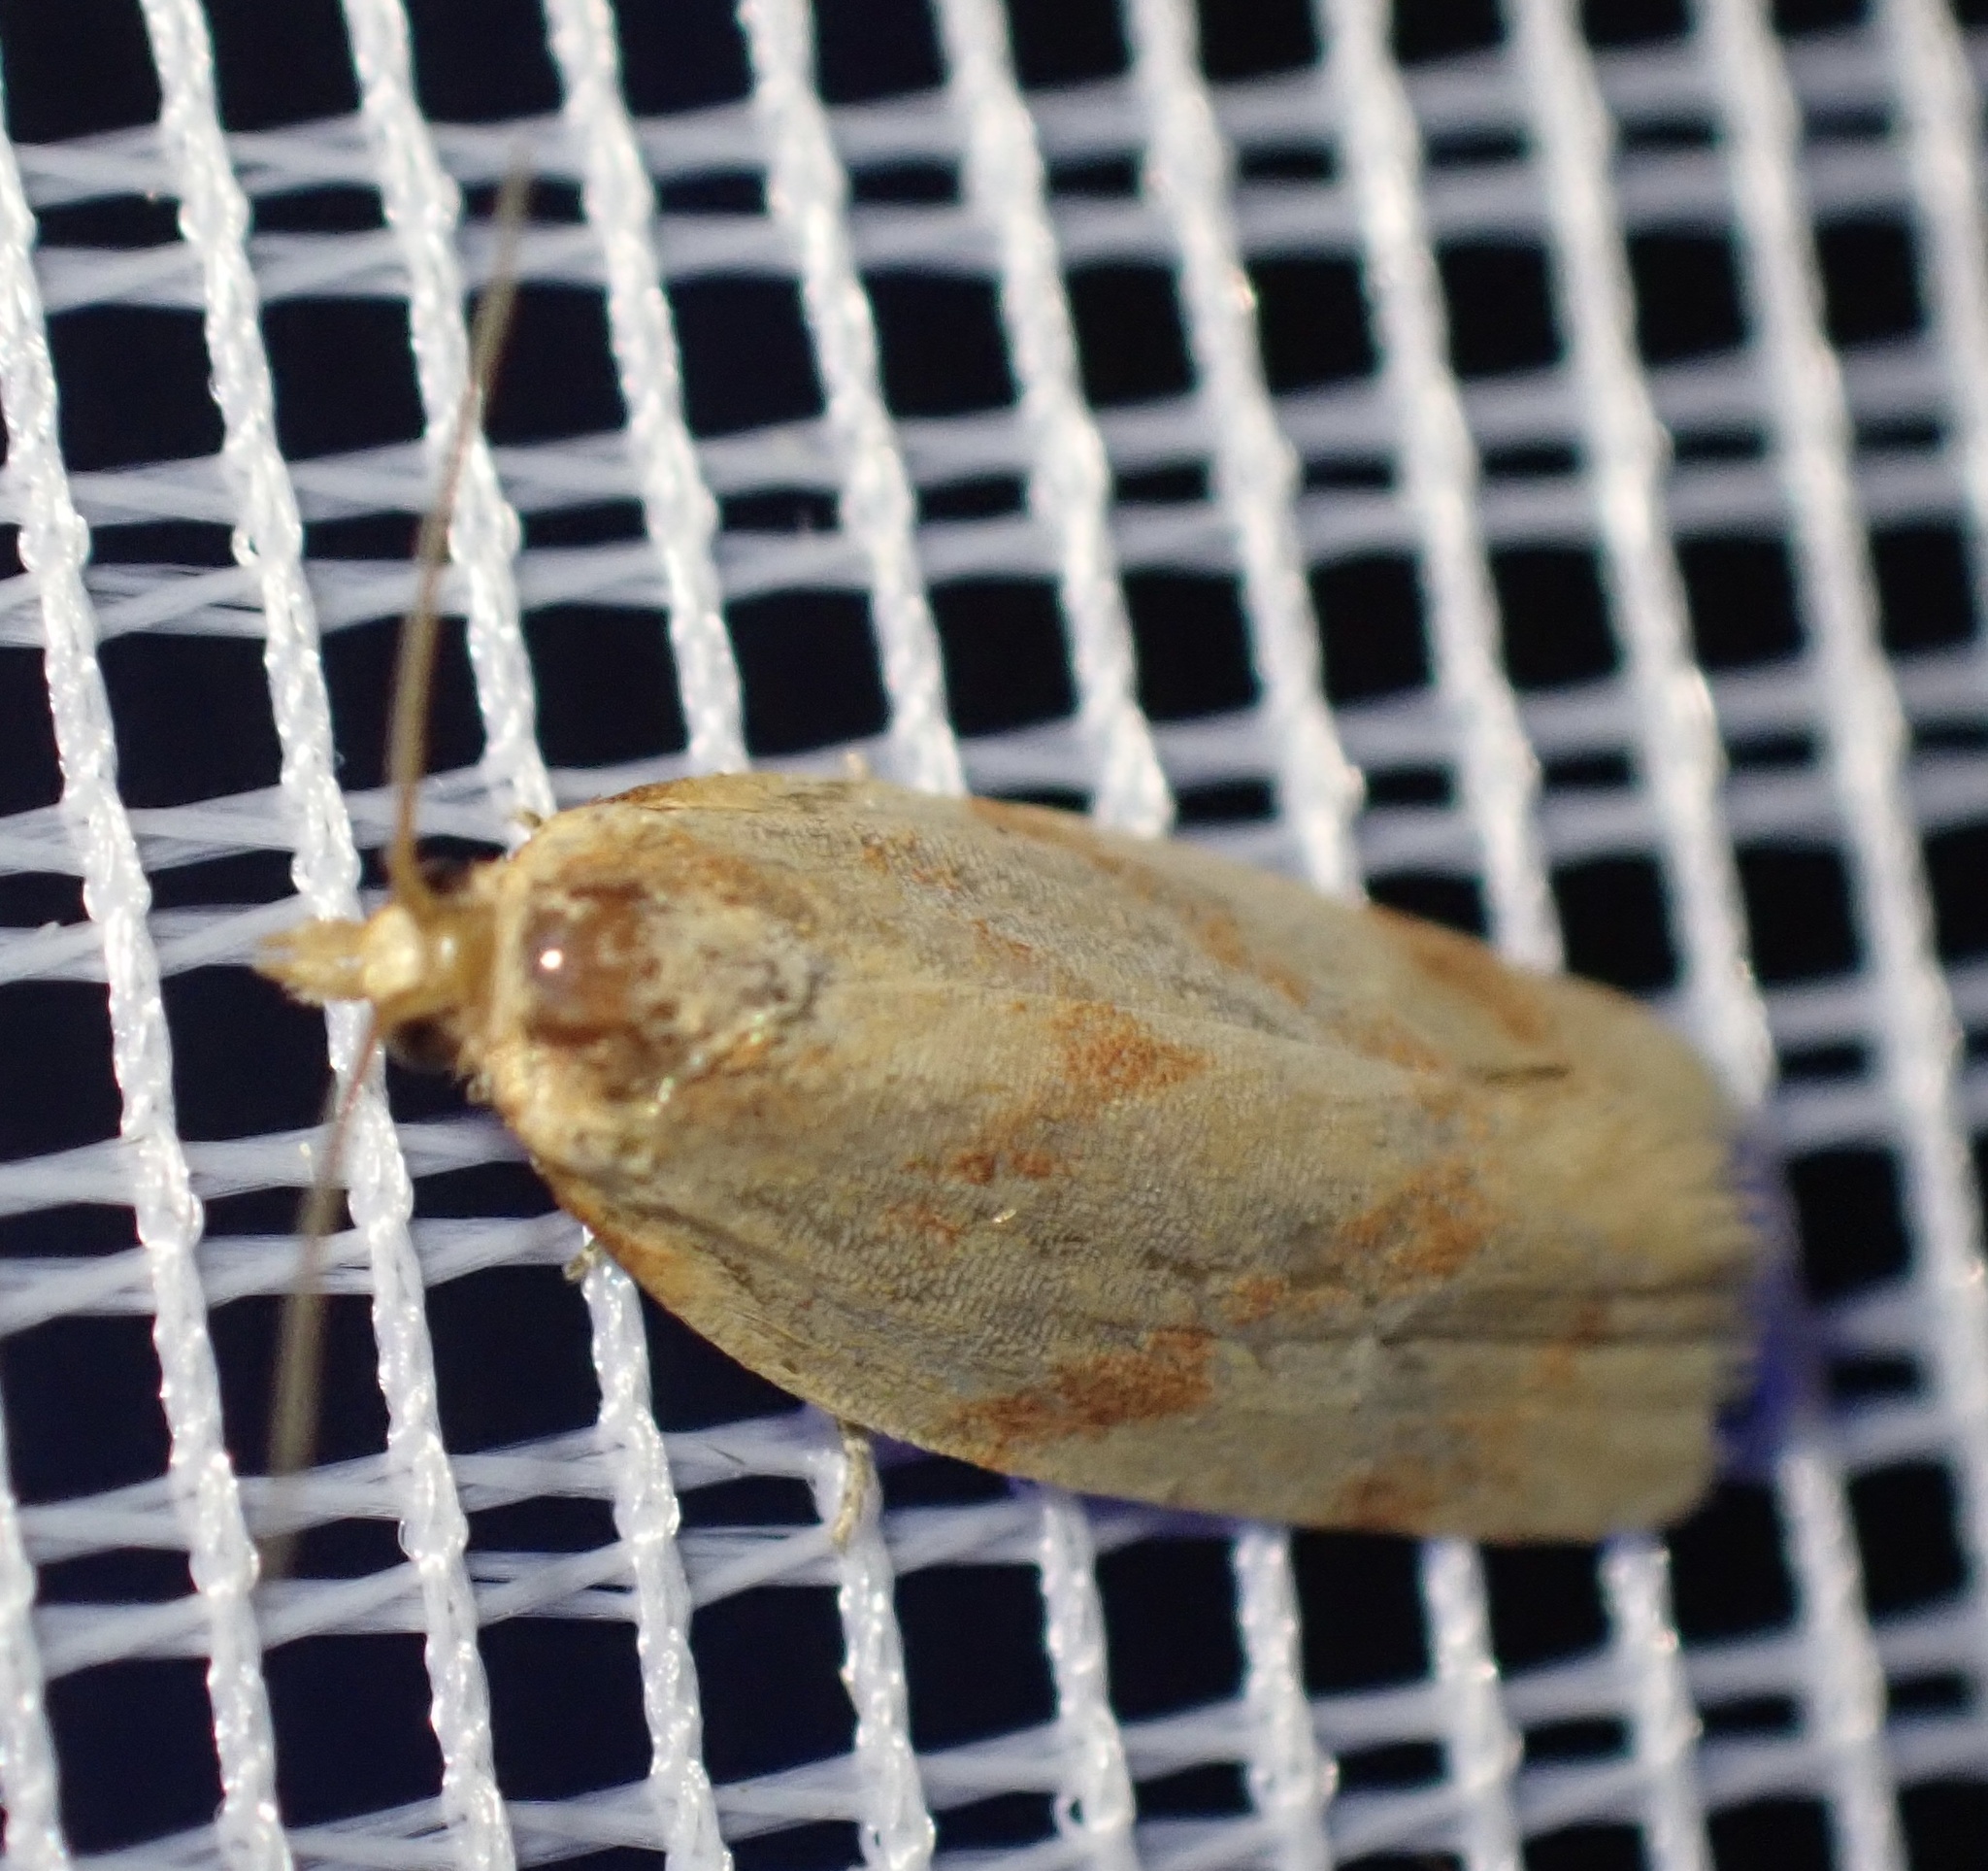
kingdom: Animalia
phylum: Arthropoda
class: Insecta
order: Lepidoptera
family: Tortricidae
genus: Clepsis
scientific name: Clepsis pallidana
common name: Sheep's-bit conch
